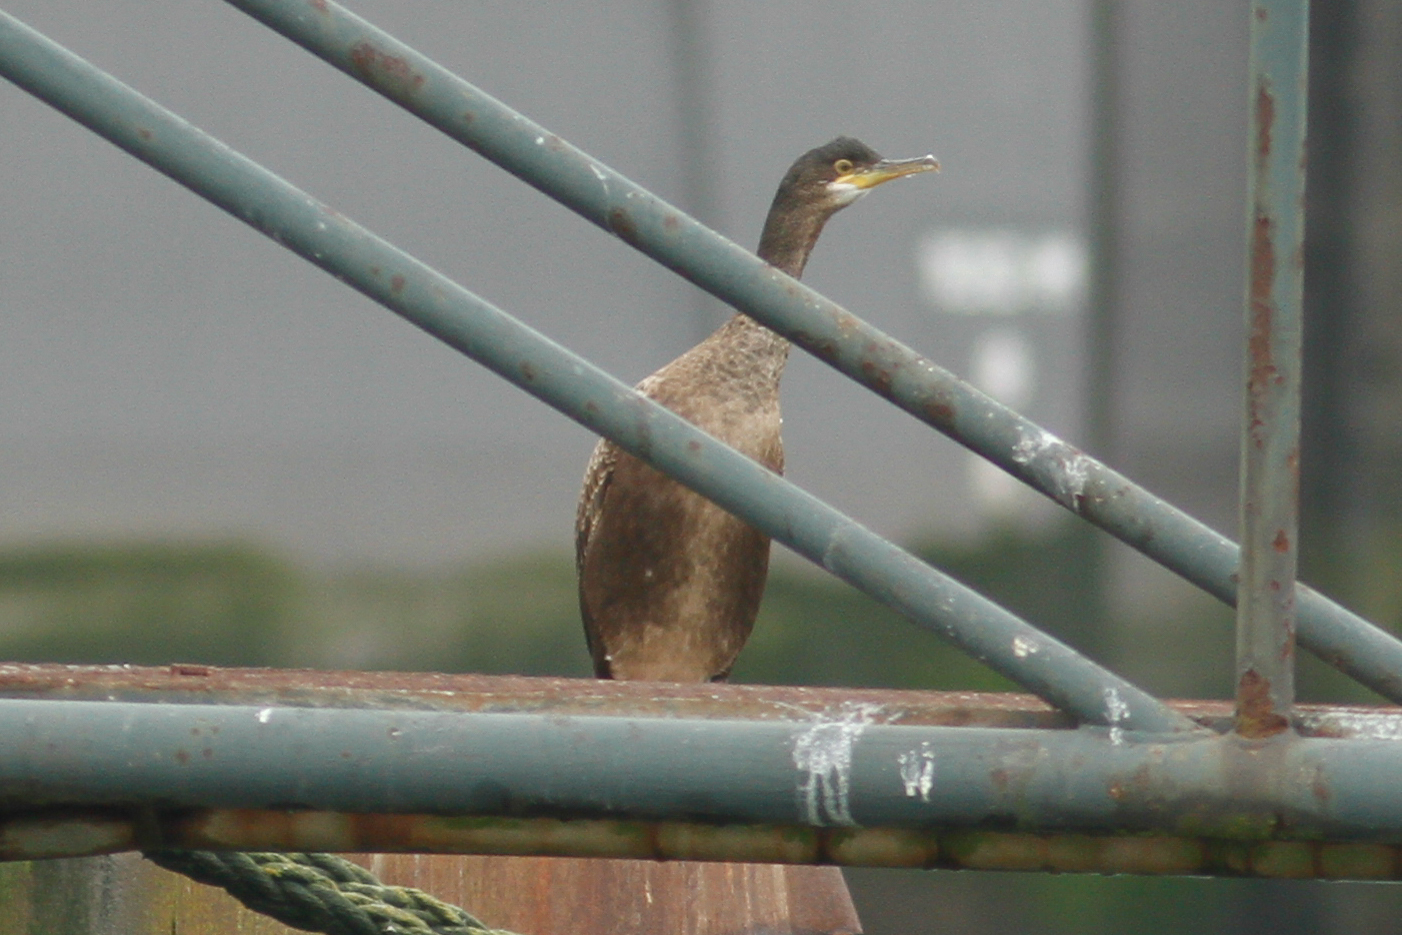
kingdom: Animalia
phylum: Chordata
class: Aves
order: Suliformes
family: Phalacrocoracidae
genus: Phalacrocorax
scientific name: Phalacrocorax aristotelis
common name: European shag
